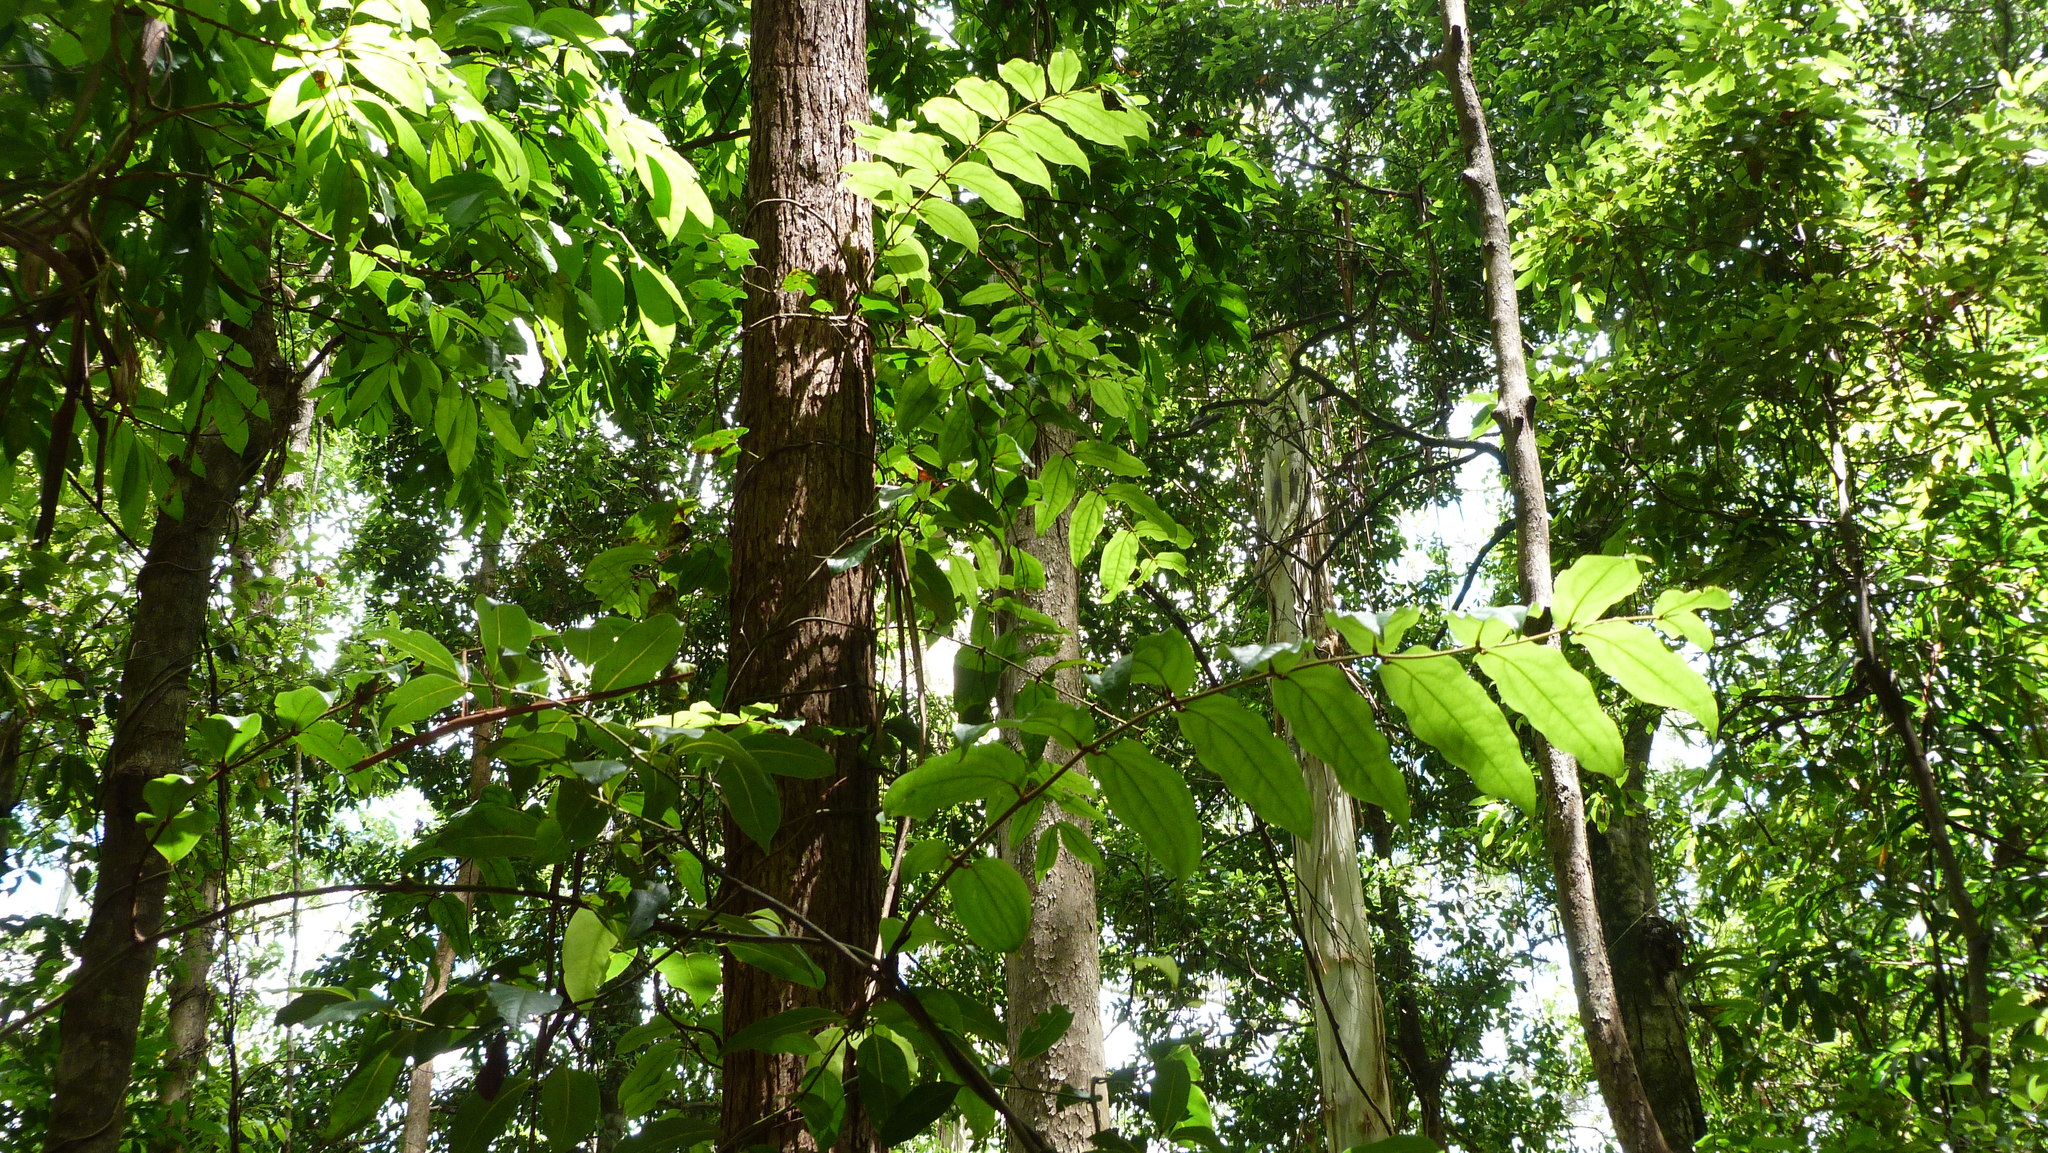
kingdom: Plantae
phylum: Tracheophyta
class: Liliopsida
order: Liliales
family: Ripogonaceae
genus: Ripogonum
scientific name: Ripogonum elseyanum
